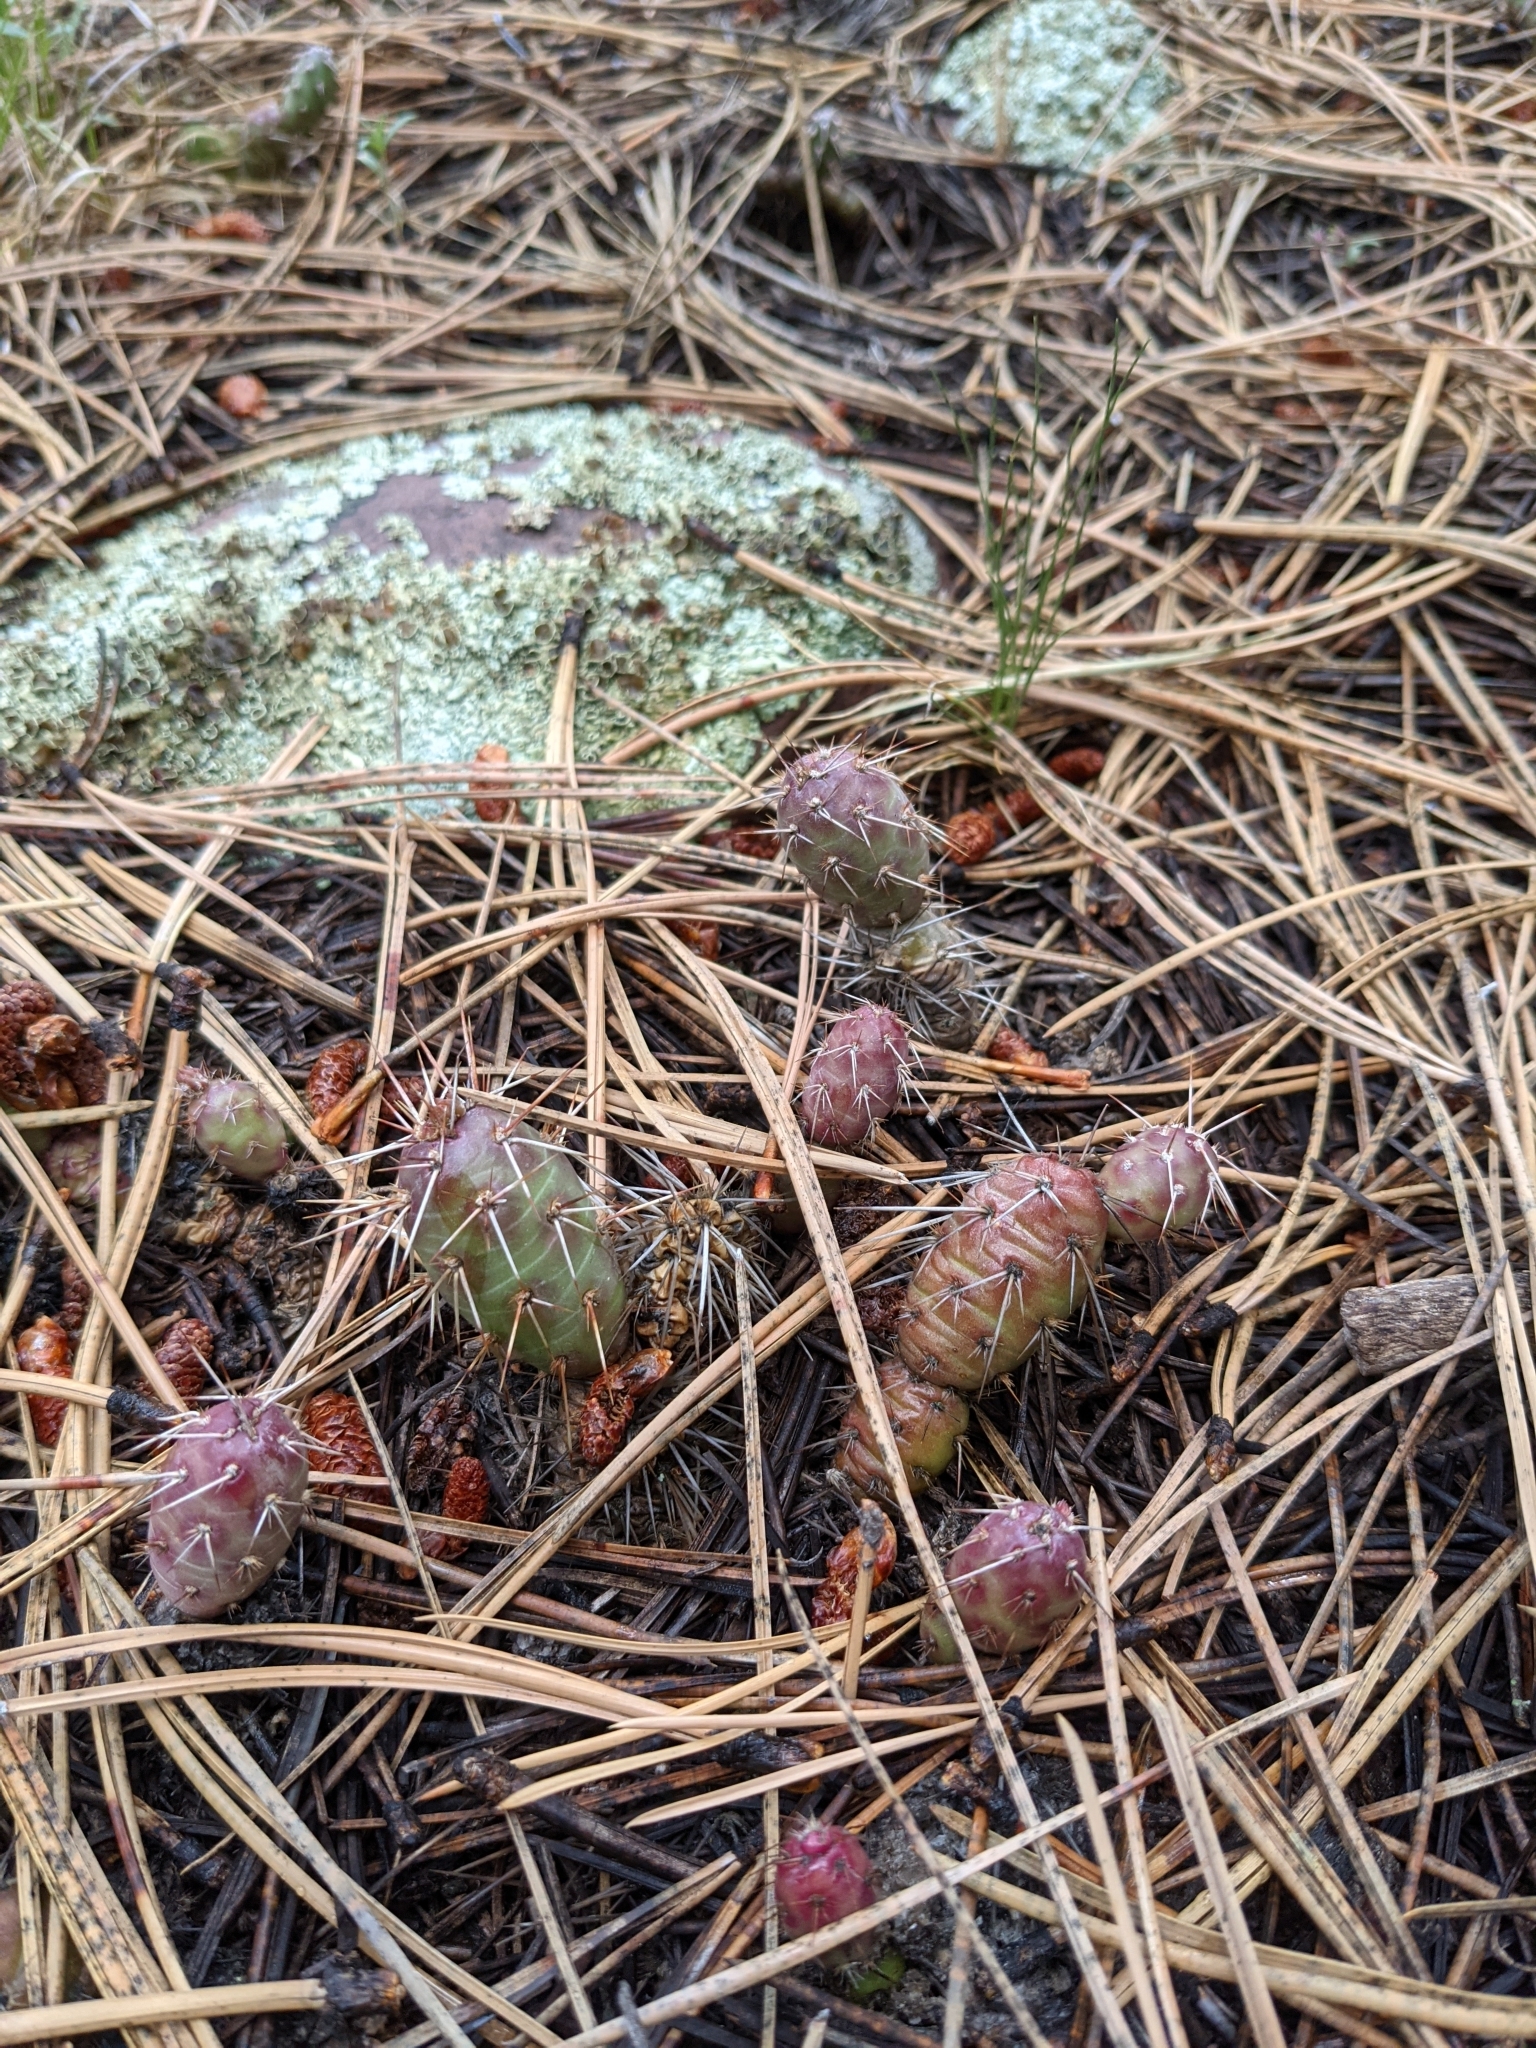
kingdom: Plantae
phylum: Tracheophyta
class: Magnoliopsida
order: Caryophyllales
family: Cactaceae
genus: Opuntia
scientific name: Opuntia fragilis
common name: Brittle cactus
